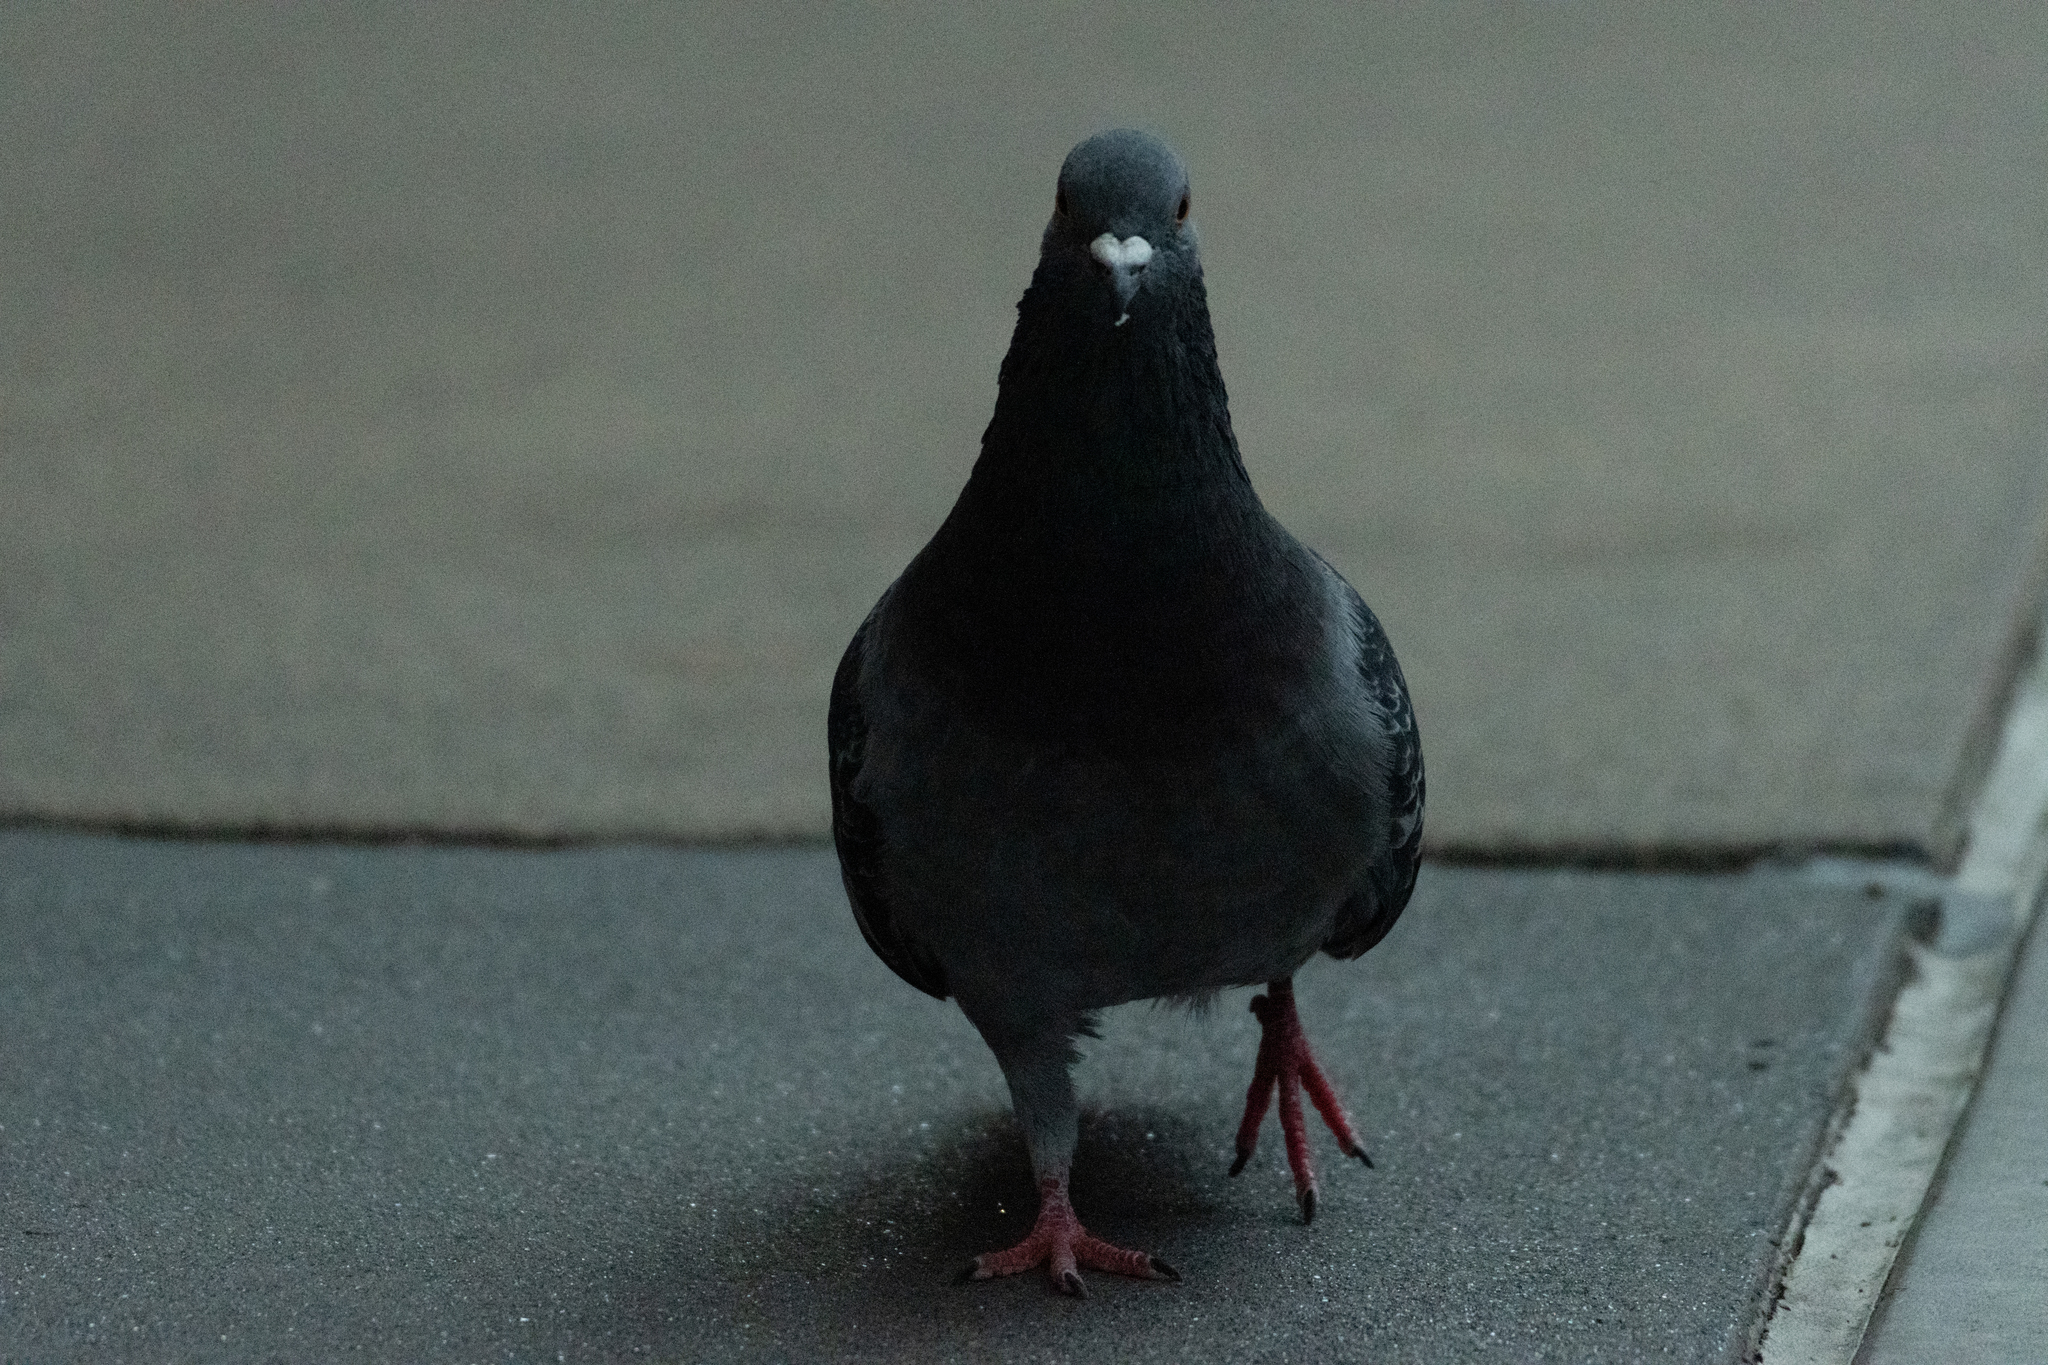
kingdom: Animalia
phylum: Chordata
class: Aves
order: Columbiformes
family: Columbidae
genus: Columba
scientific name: Columba livia
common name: Rock pigeon
